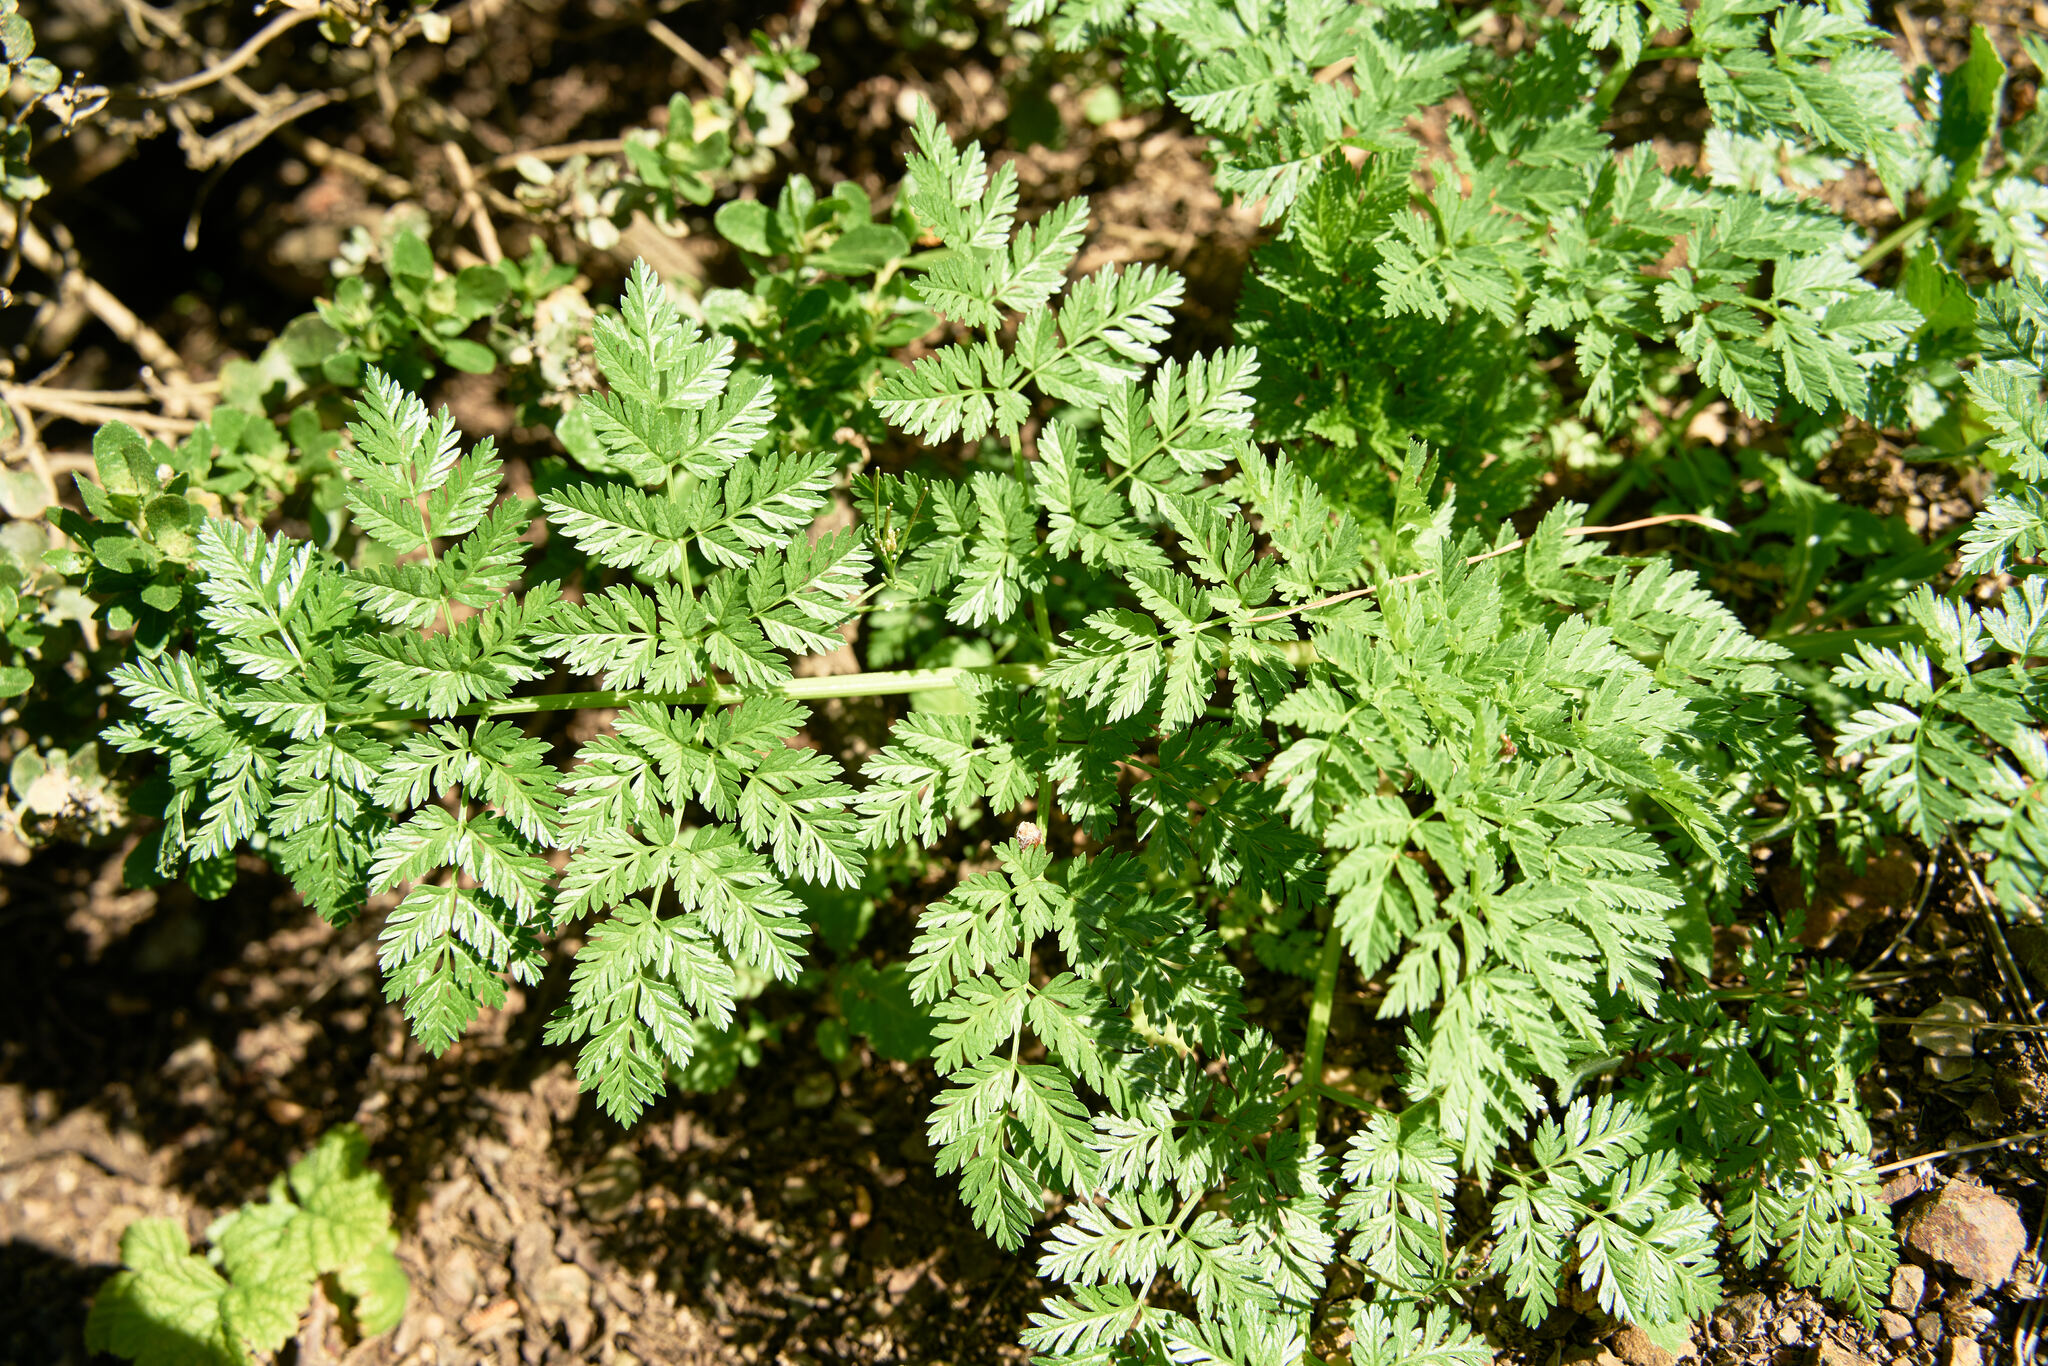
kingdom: Plantae
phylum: Tracheophyta
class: Magnoliopsida
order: Apiales
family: Apiaceae
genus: Conium
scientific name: Conium maculatum
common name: Hemlock
